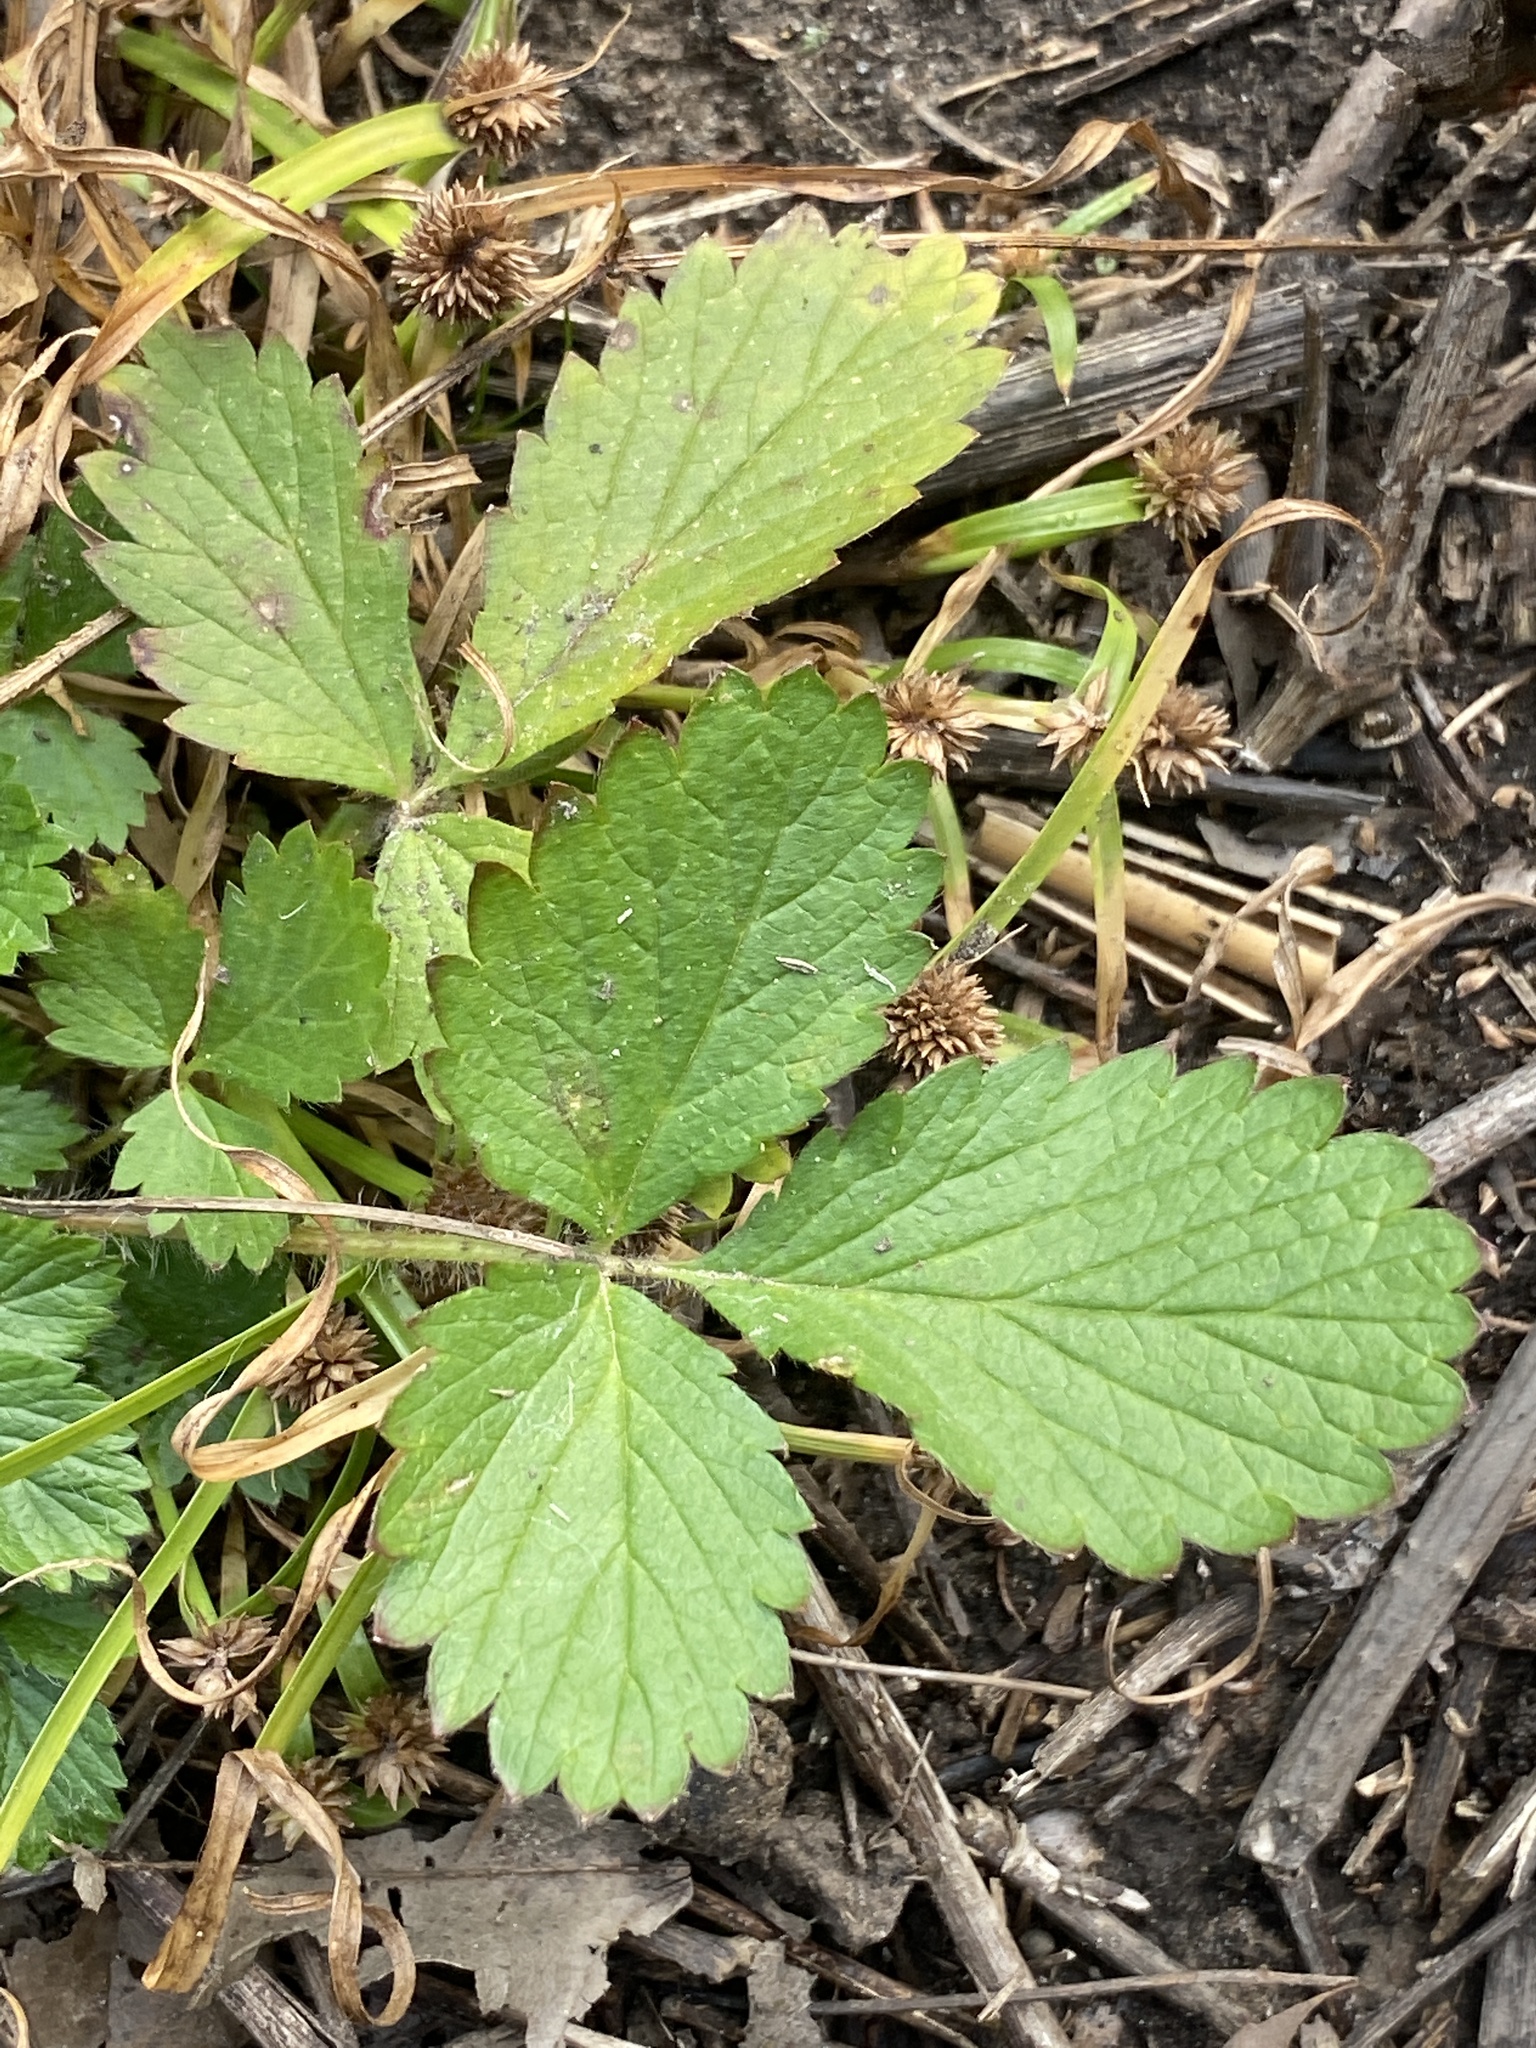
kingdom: Plantae
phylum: Tracheophyta
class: Magnoliopsida
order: Rosales
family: Rosaceae
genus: Potentilla
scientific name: Potentilla norvegica
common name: Ternate-leaved cinquefoil
